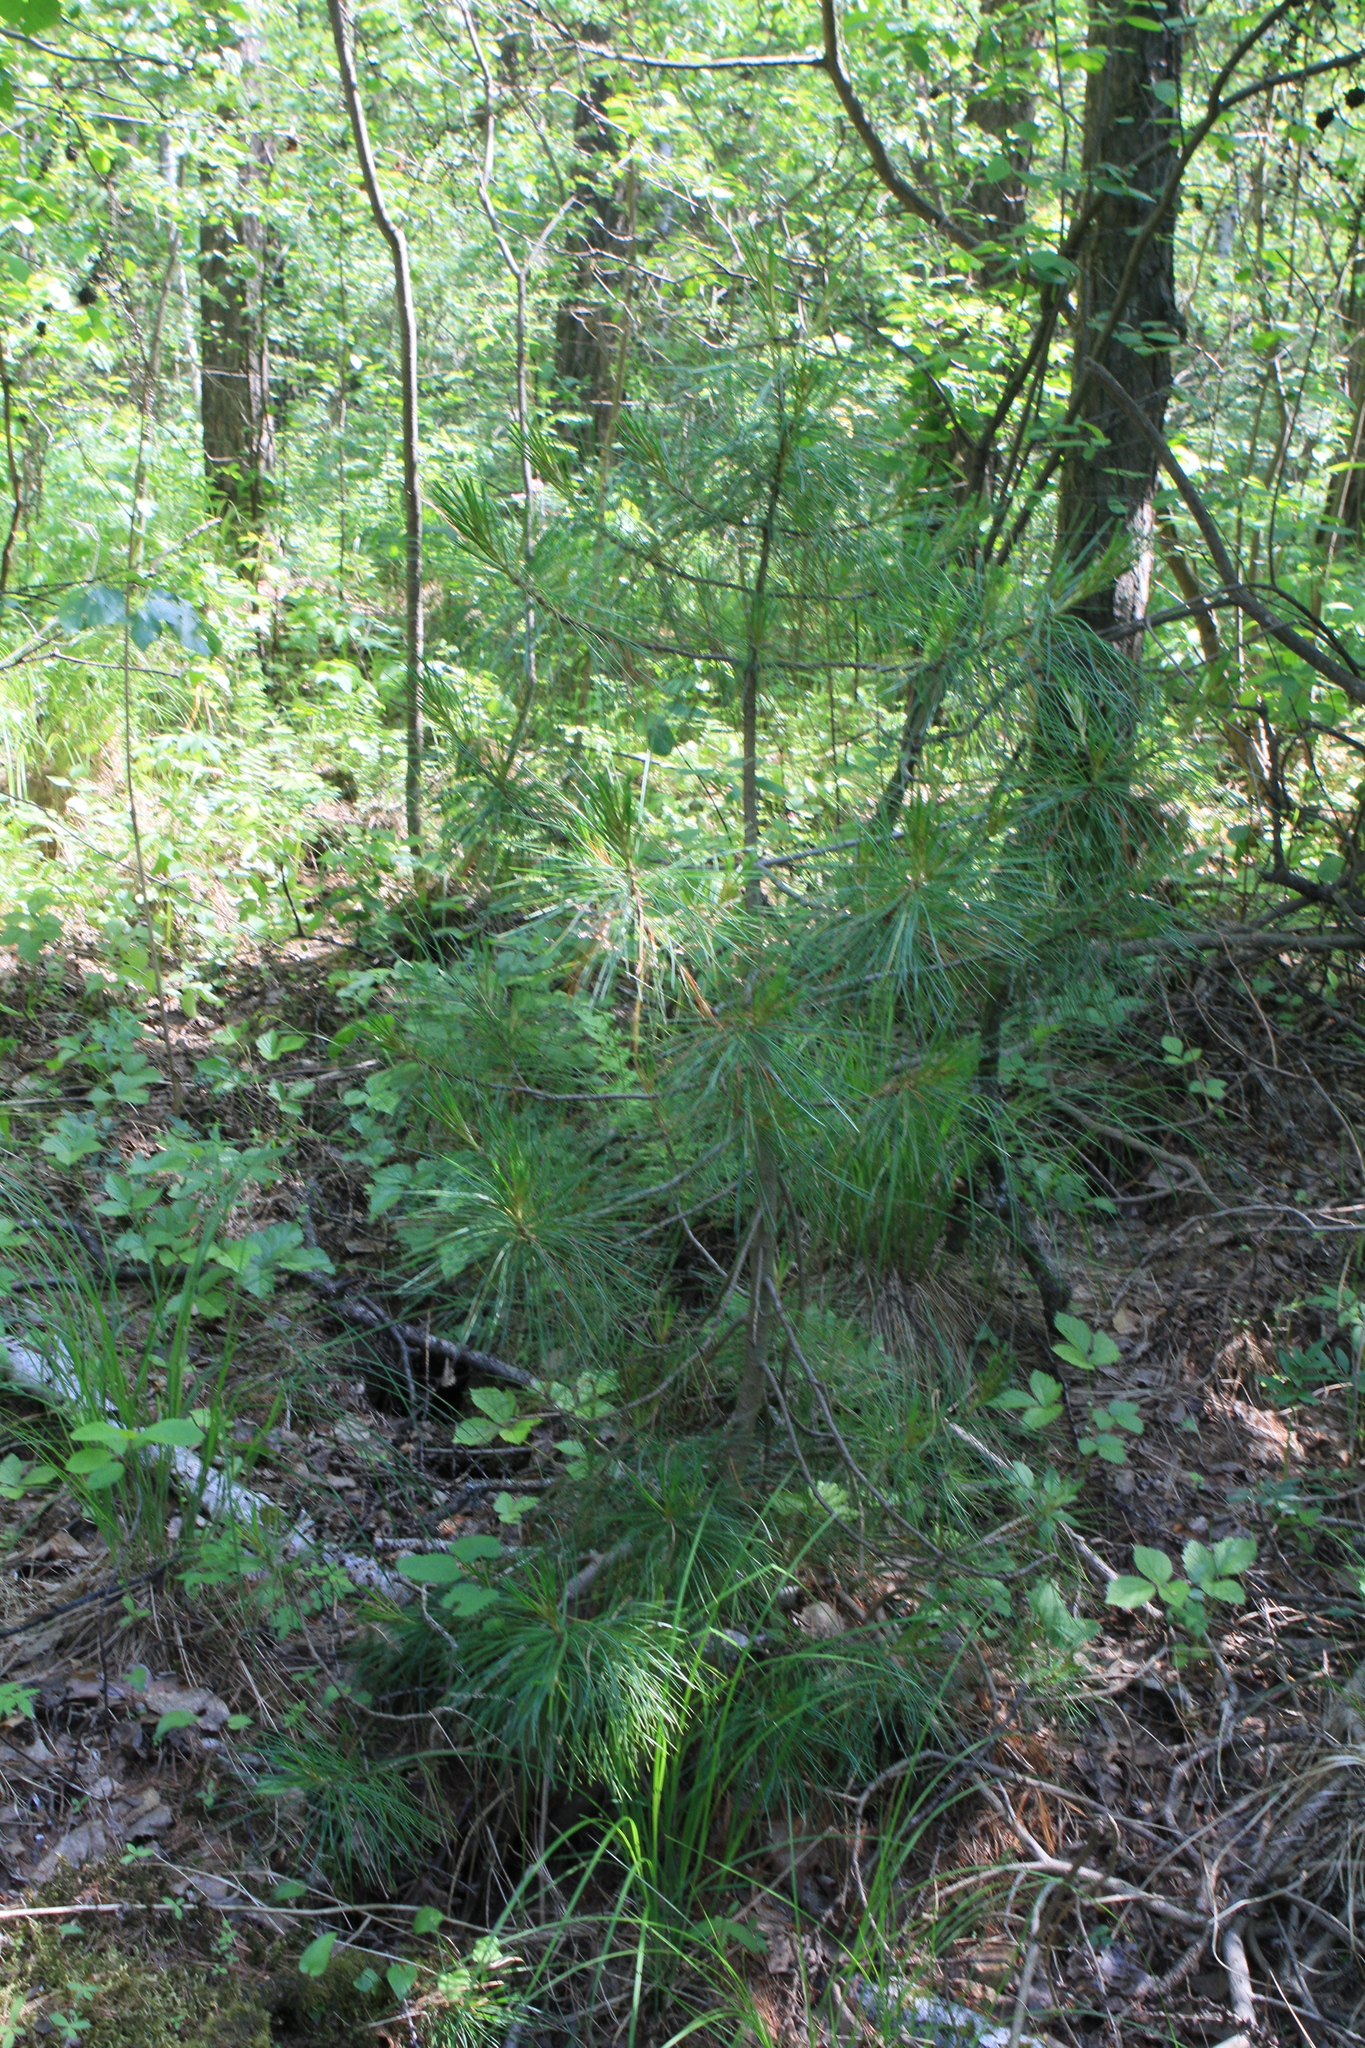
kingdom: Plantae
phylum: Tracheophyta
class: Pinopsida
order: Pinales
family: Pinaceae
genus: Pinus
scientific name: Pinus sibirica
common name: Siberian pine
